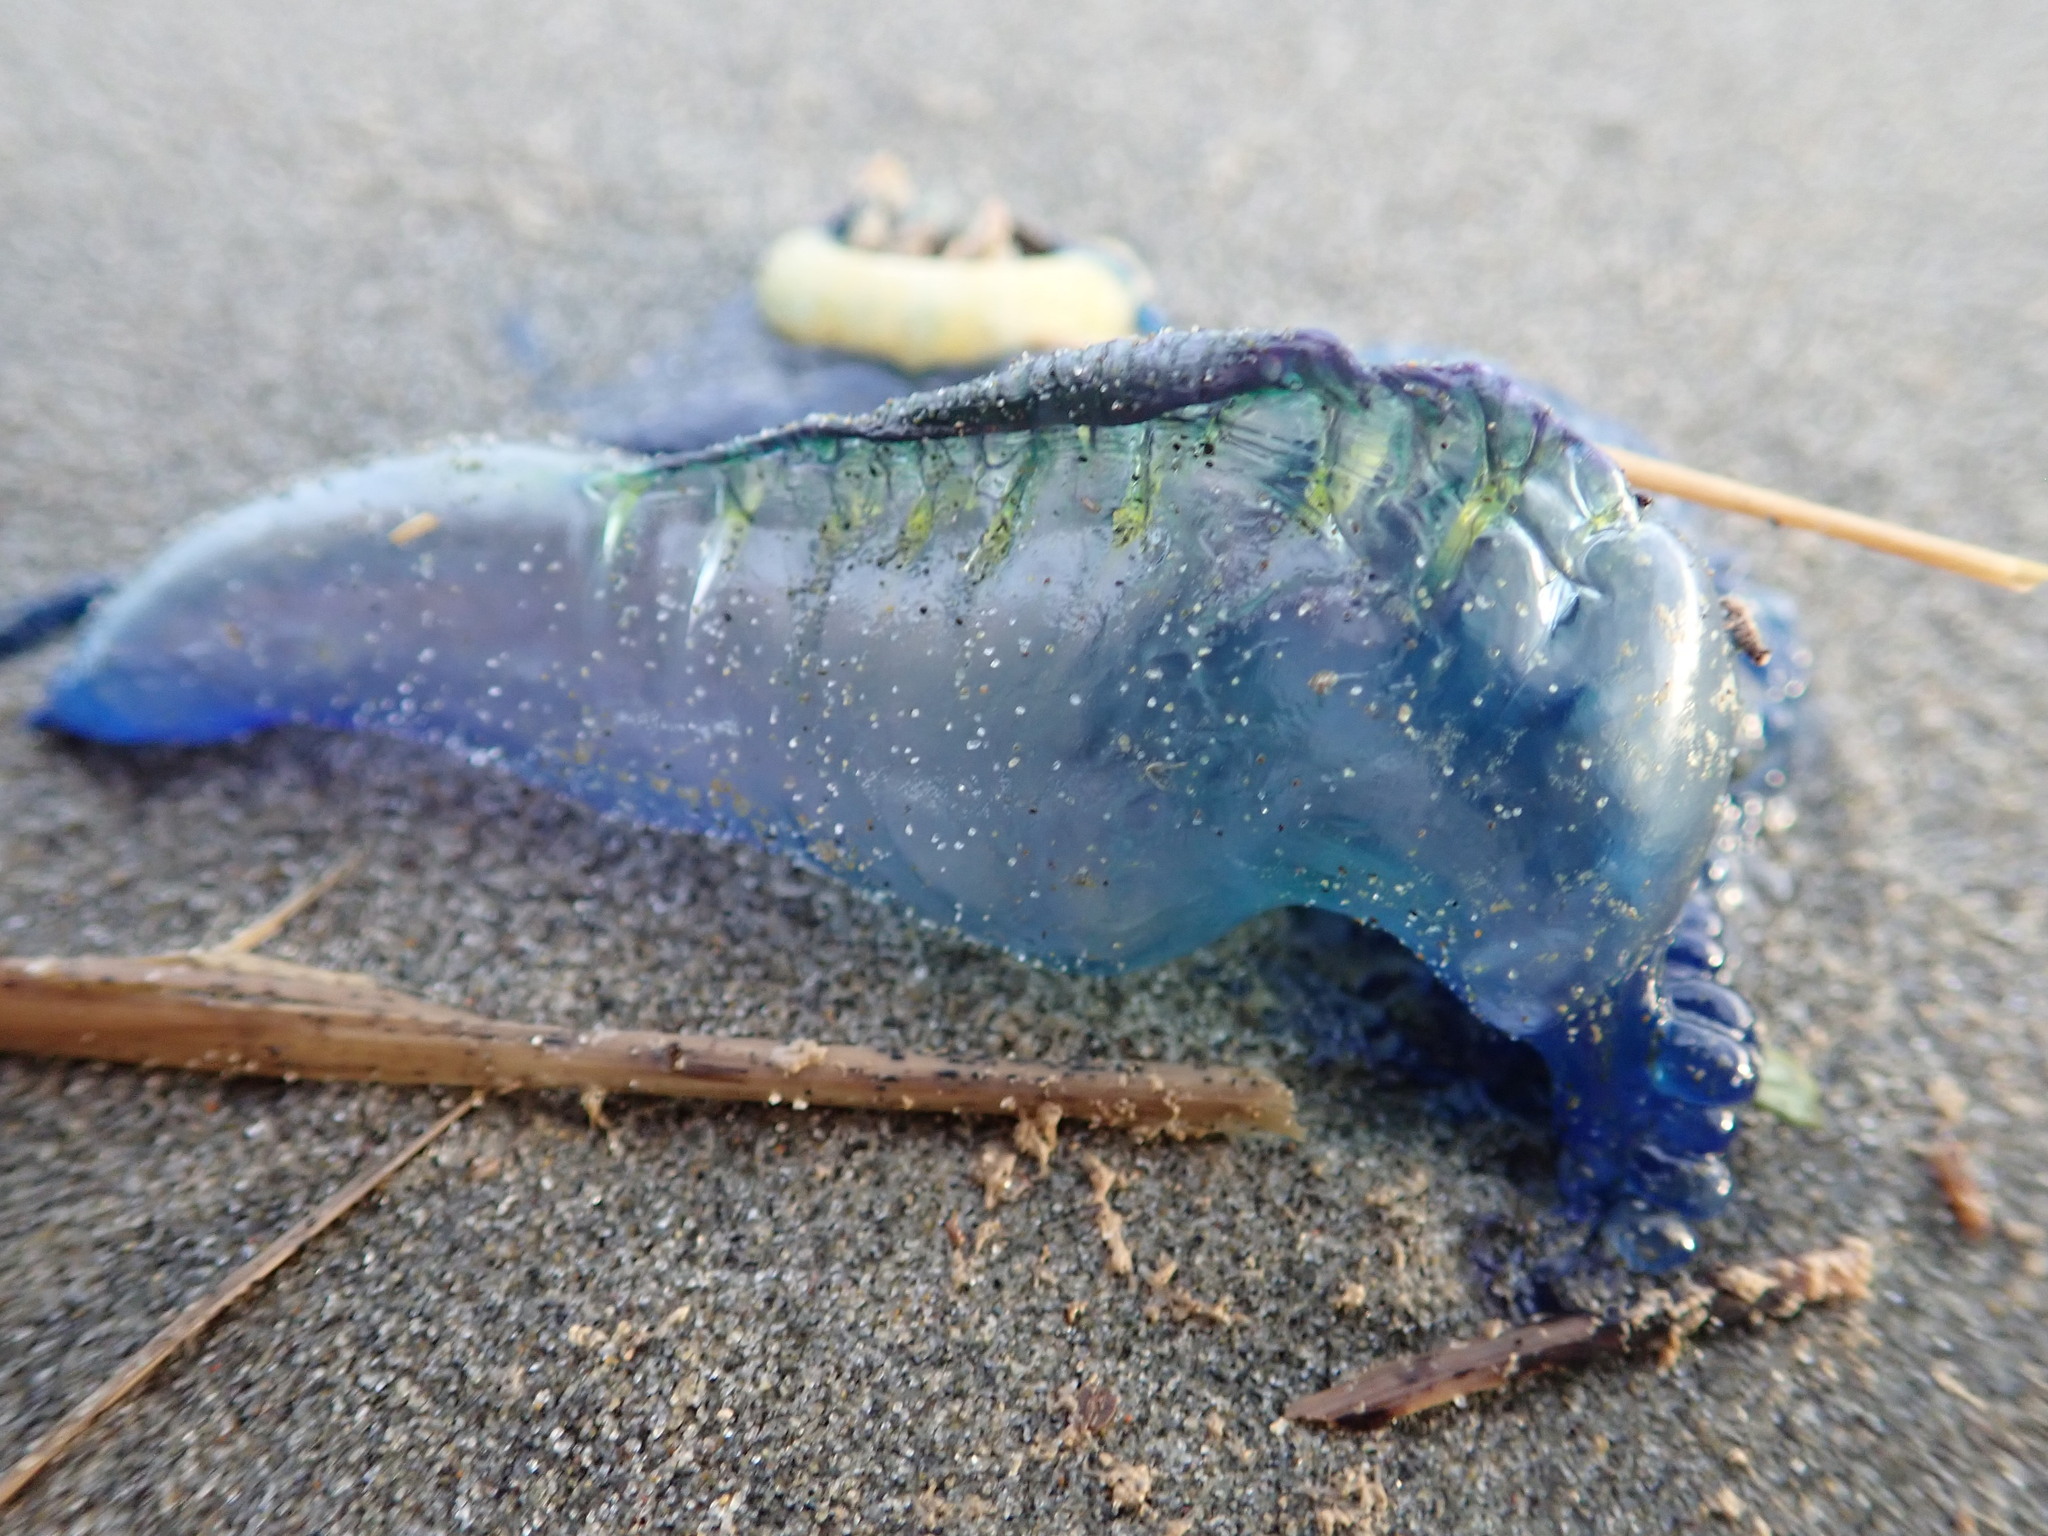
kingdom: Animalia
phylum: Cnidaria
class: Hydrozoa
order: Siphonophorae
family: Physaliidae
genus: Physalia
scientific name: Physalia physalis
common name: Portuguese man-of-war
